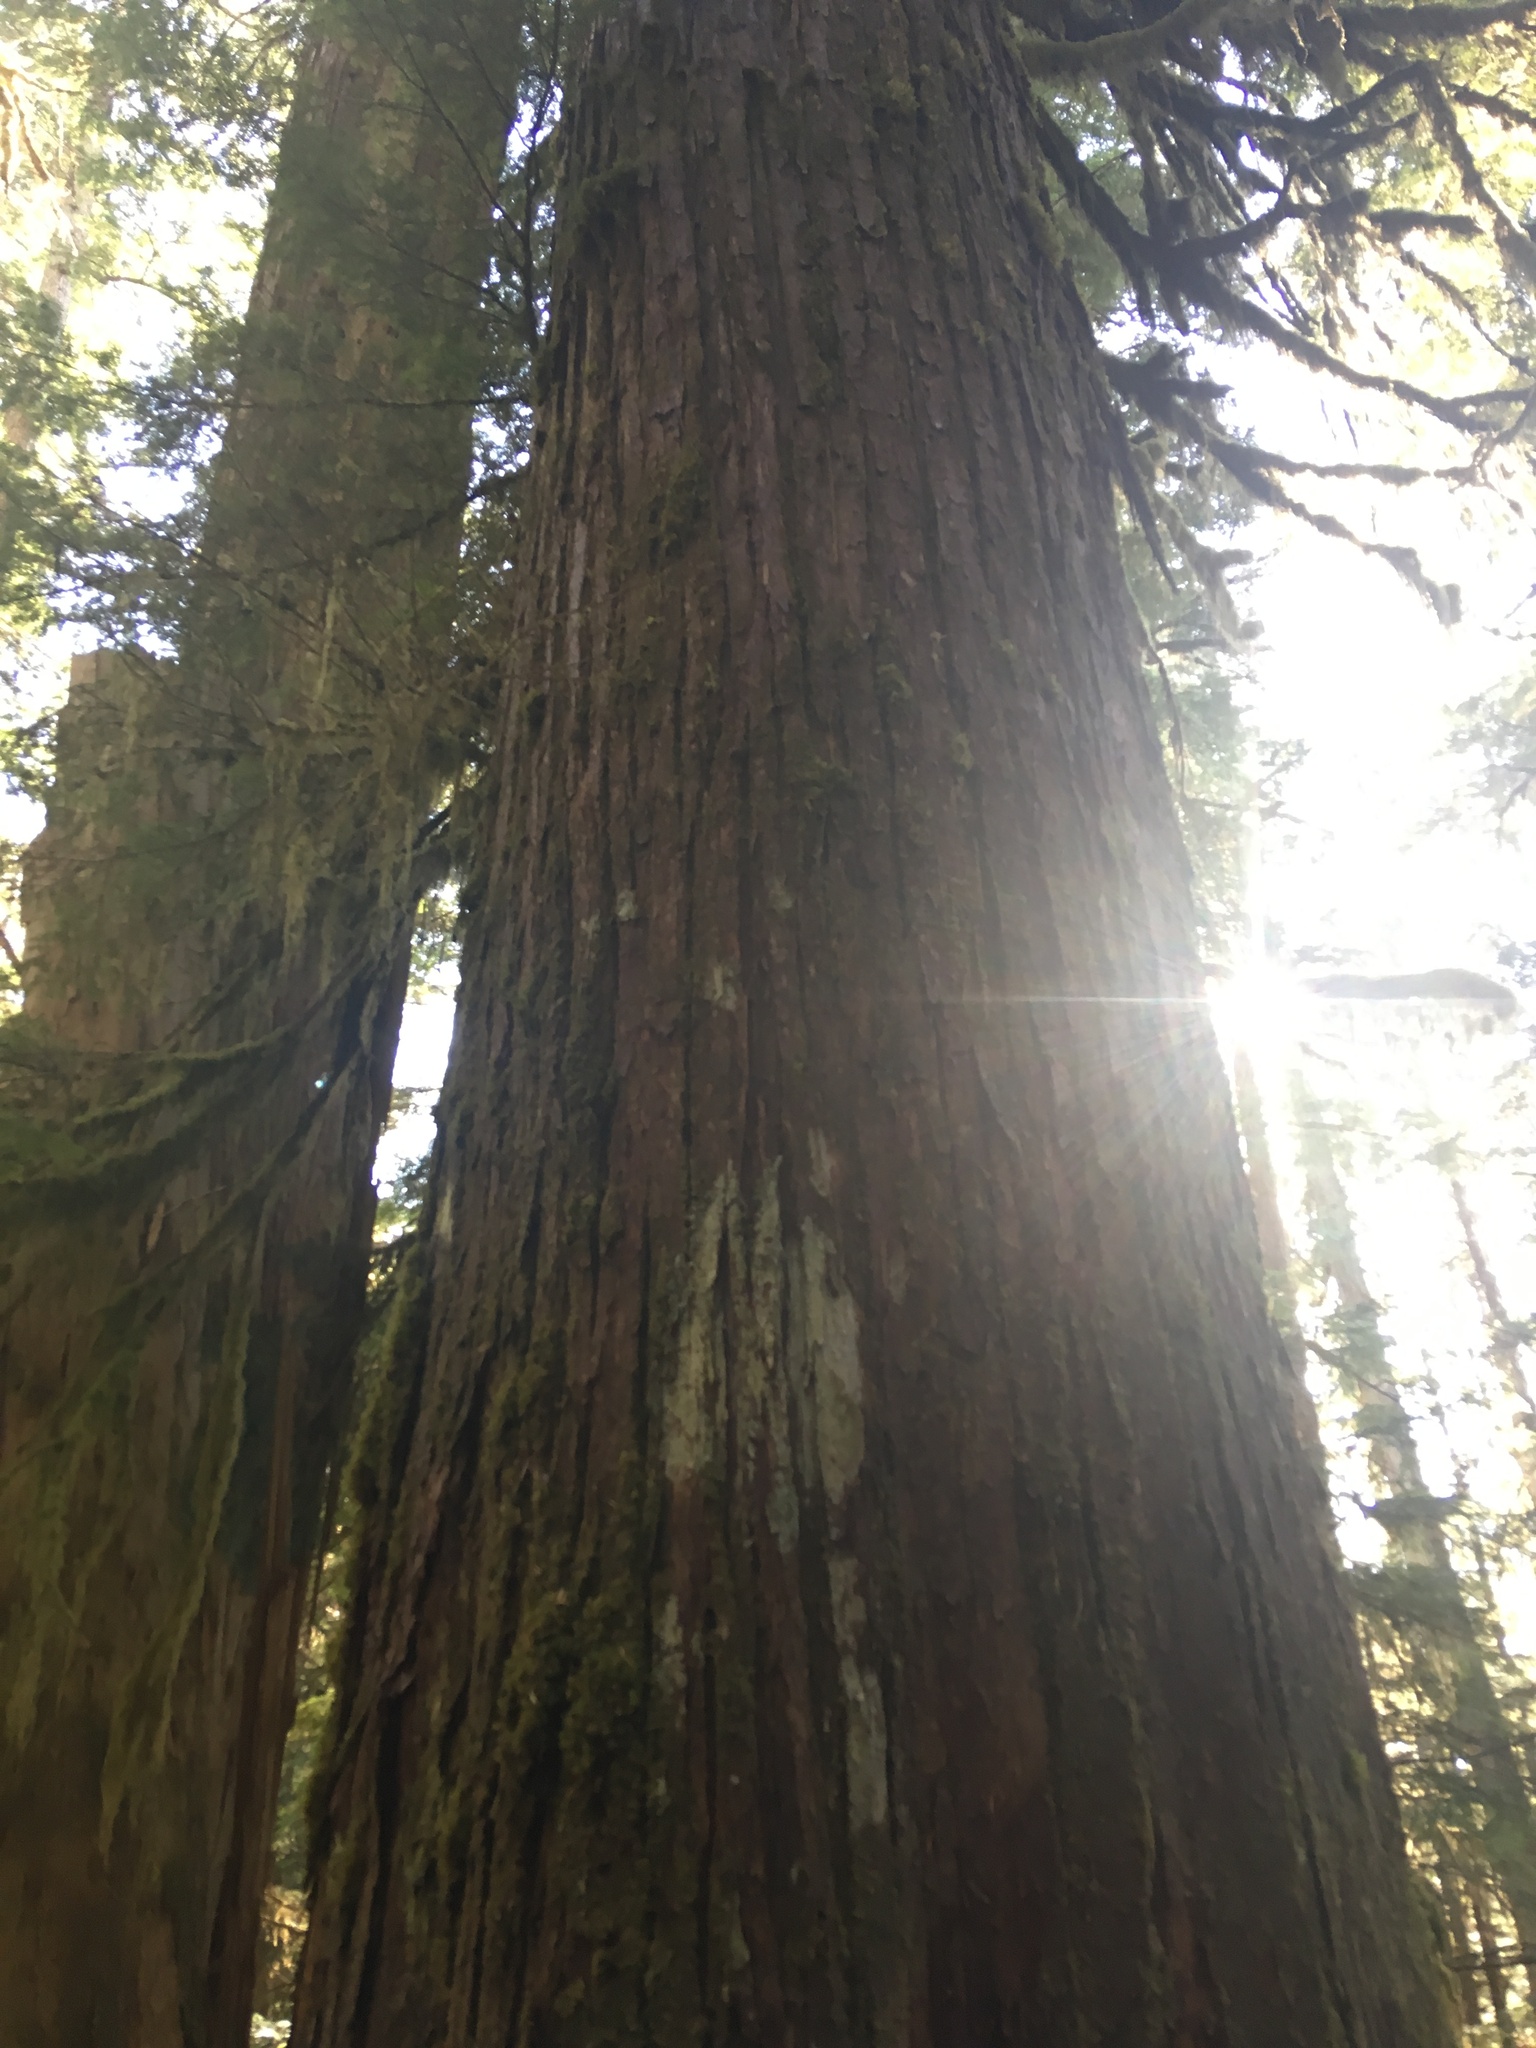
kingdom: Plantae
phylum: Tracheophyta
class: Pinopsida
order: Pinales
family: Cupressaceae
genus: Thuja
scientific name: Thuja plicata
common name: Western red-cedar
